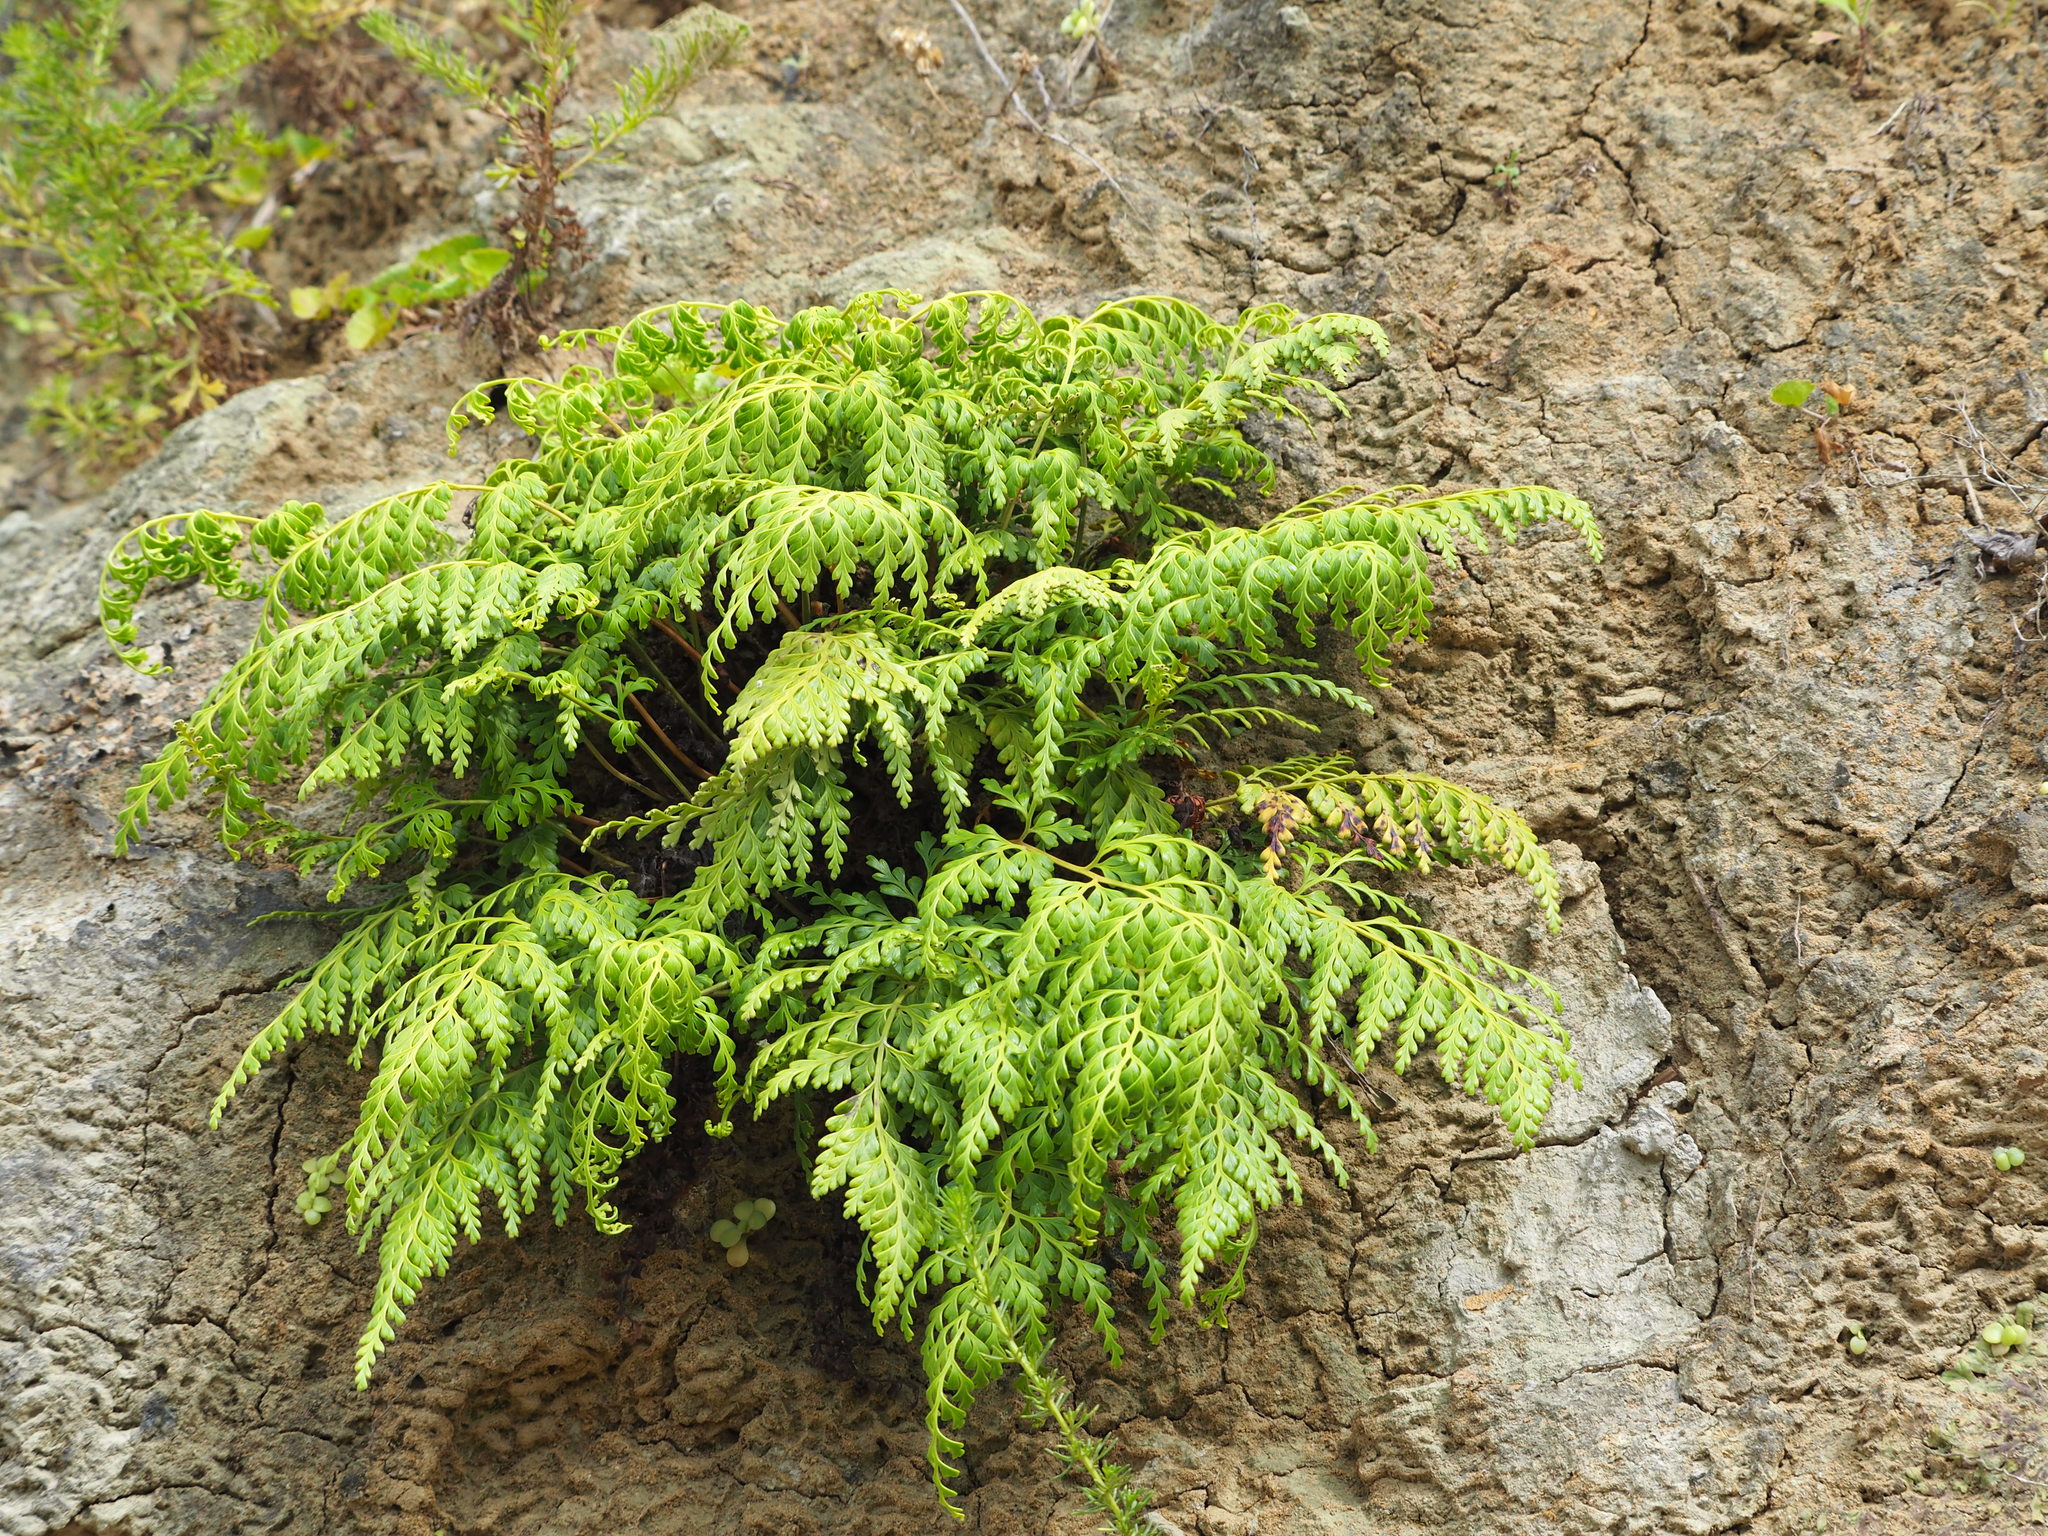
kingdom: Plantae
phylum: Tracheophyta
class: Polypodiopsida
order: Polypodiales
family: Lindsaeaceae
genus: Odontosoria
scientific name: Odontosoria biflora
